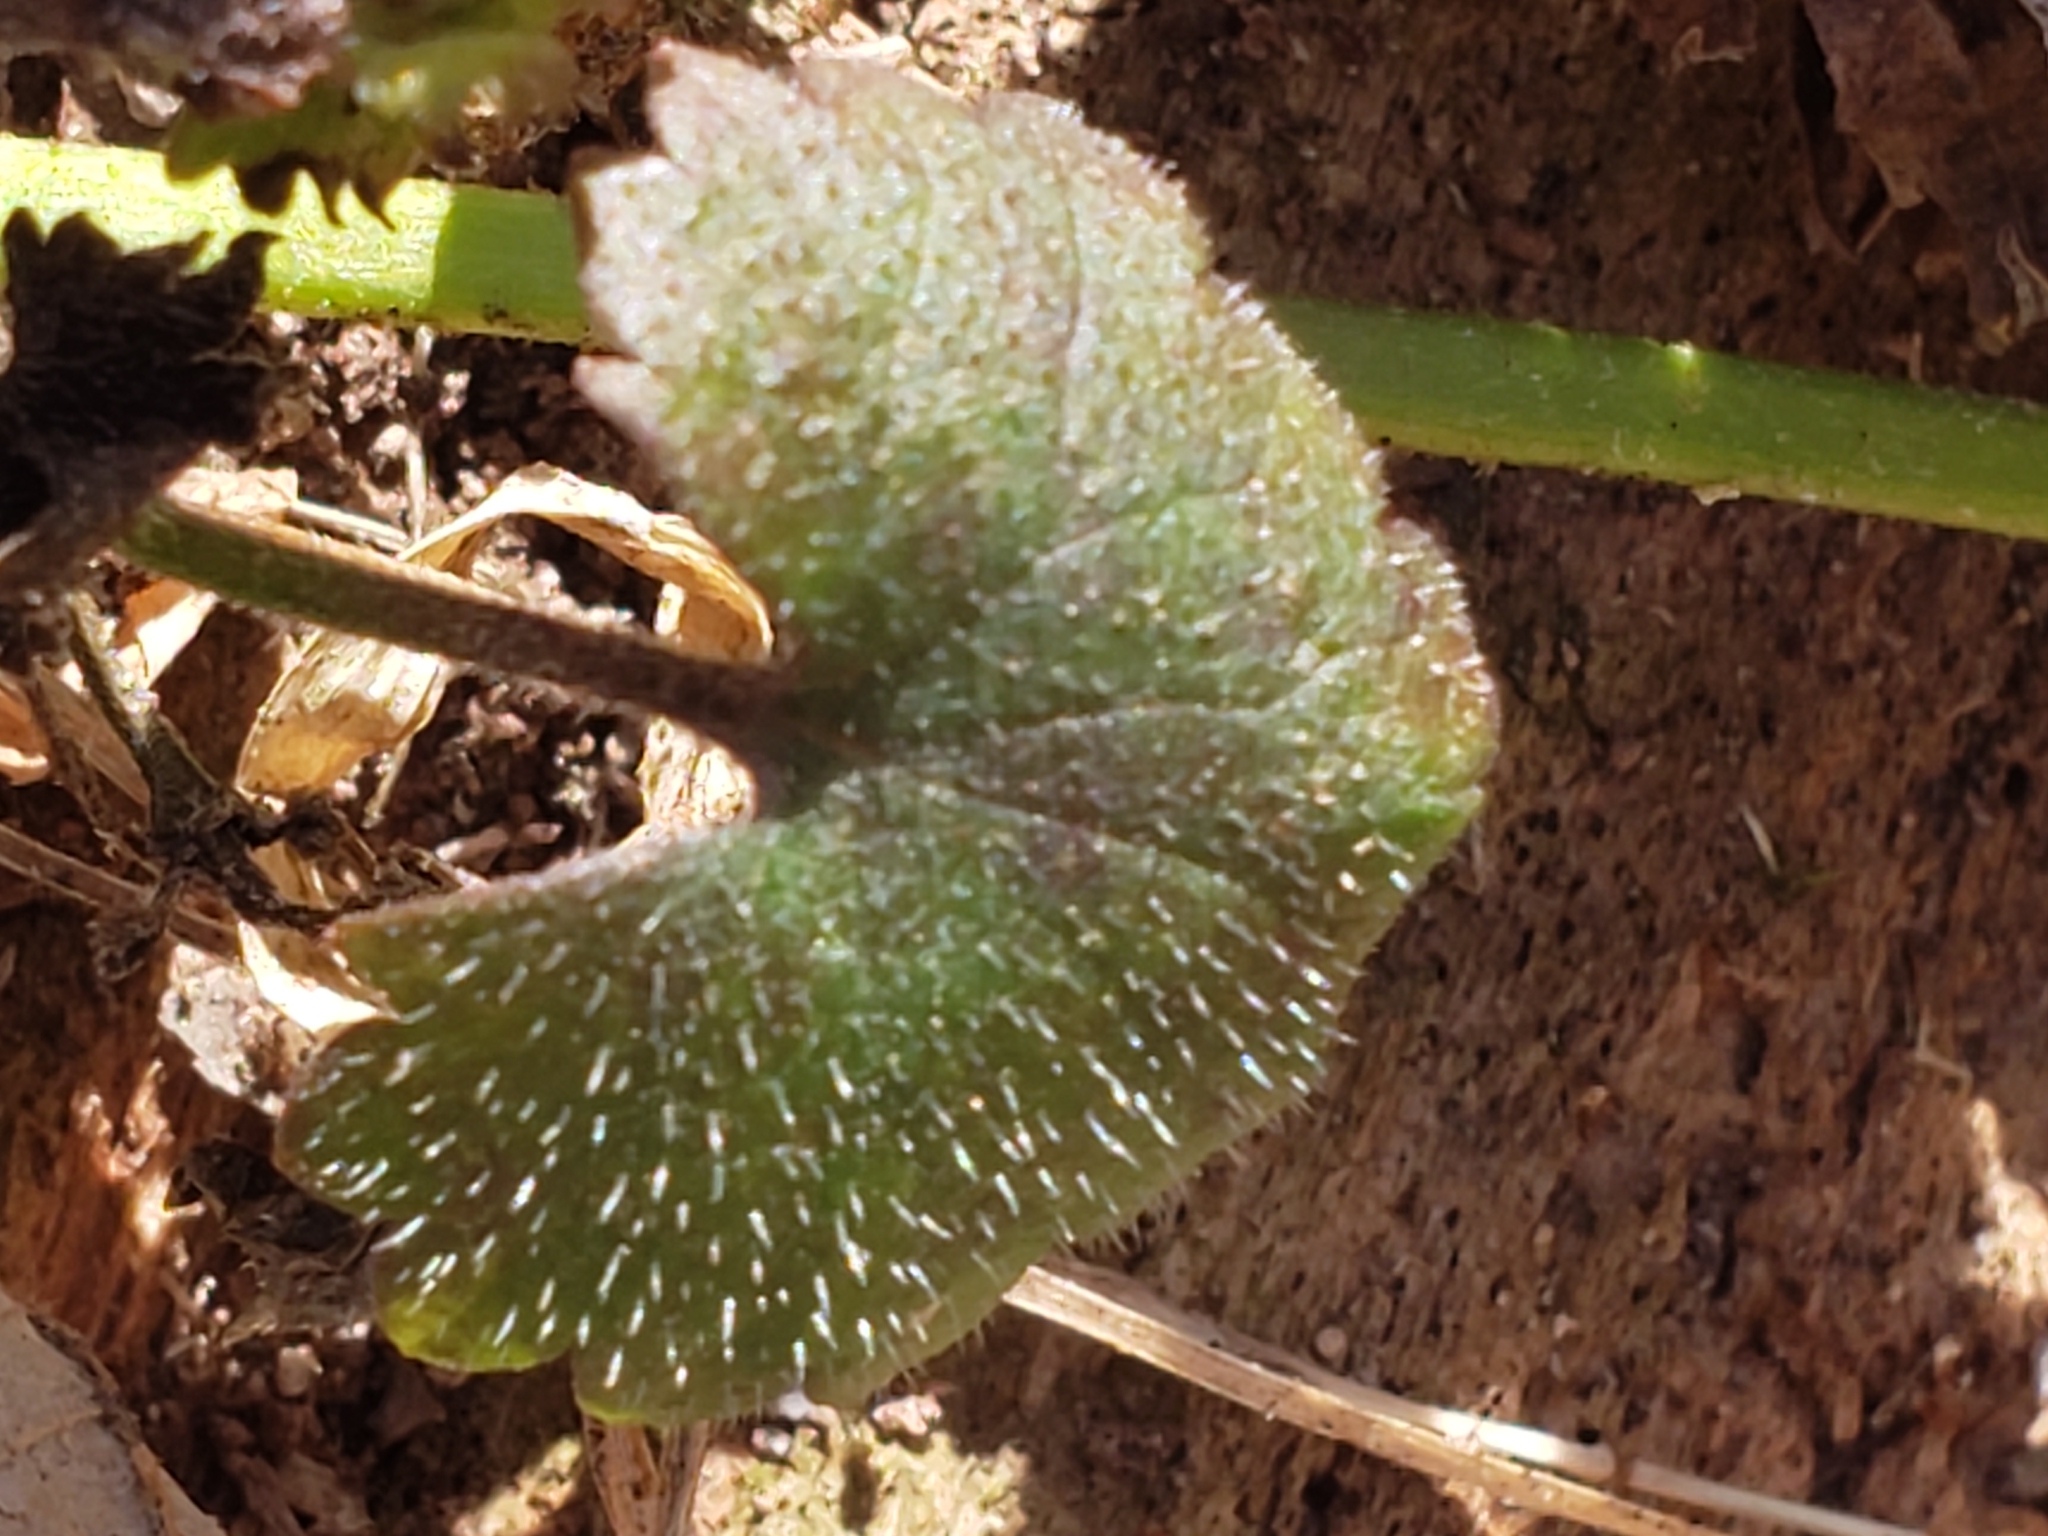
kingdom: Plantae
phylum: Tracheophyta
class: Magnoliopsida
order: Lamiales
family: Lamiaceae
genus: Glechoma
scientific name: Glechoma hederacea
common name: Ground ivy
